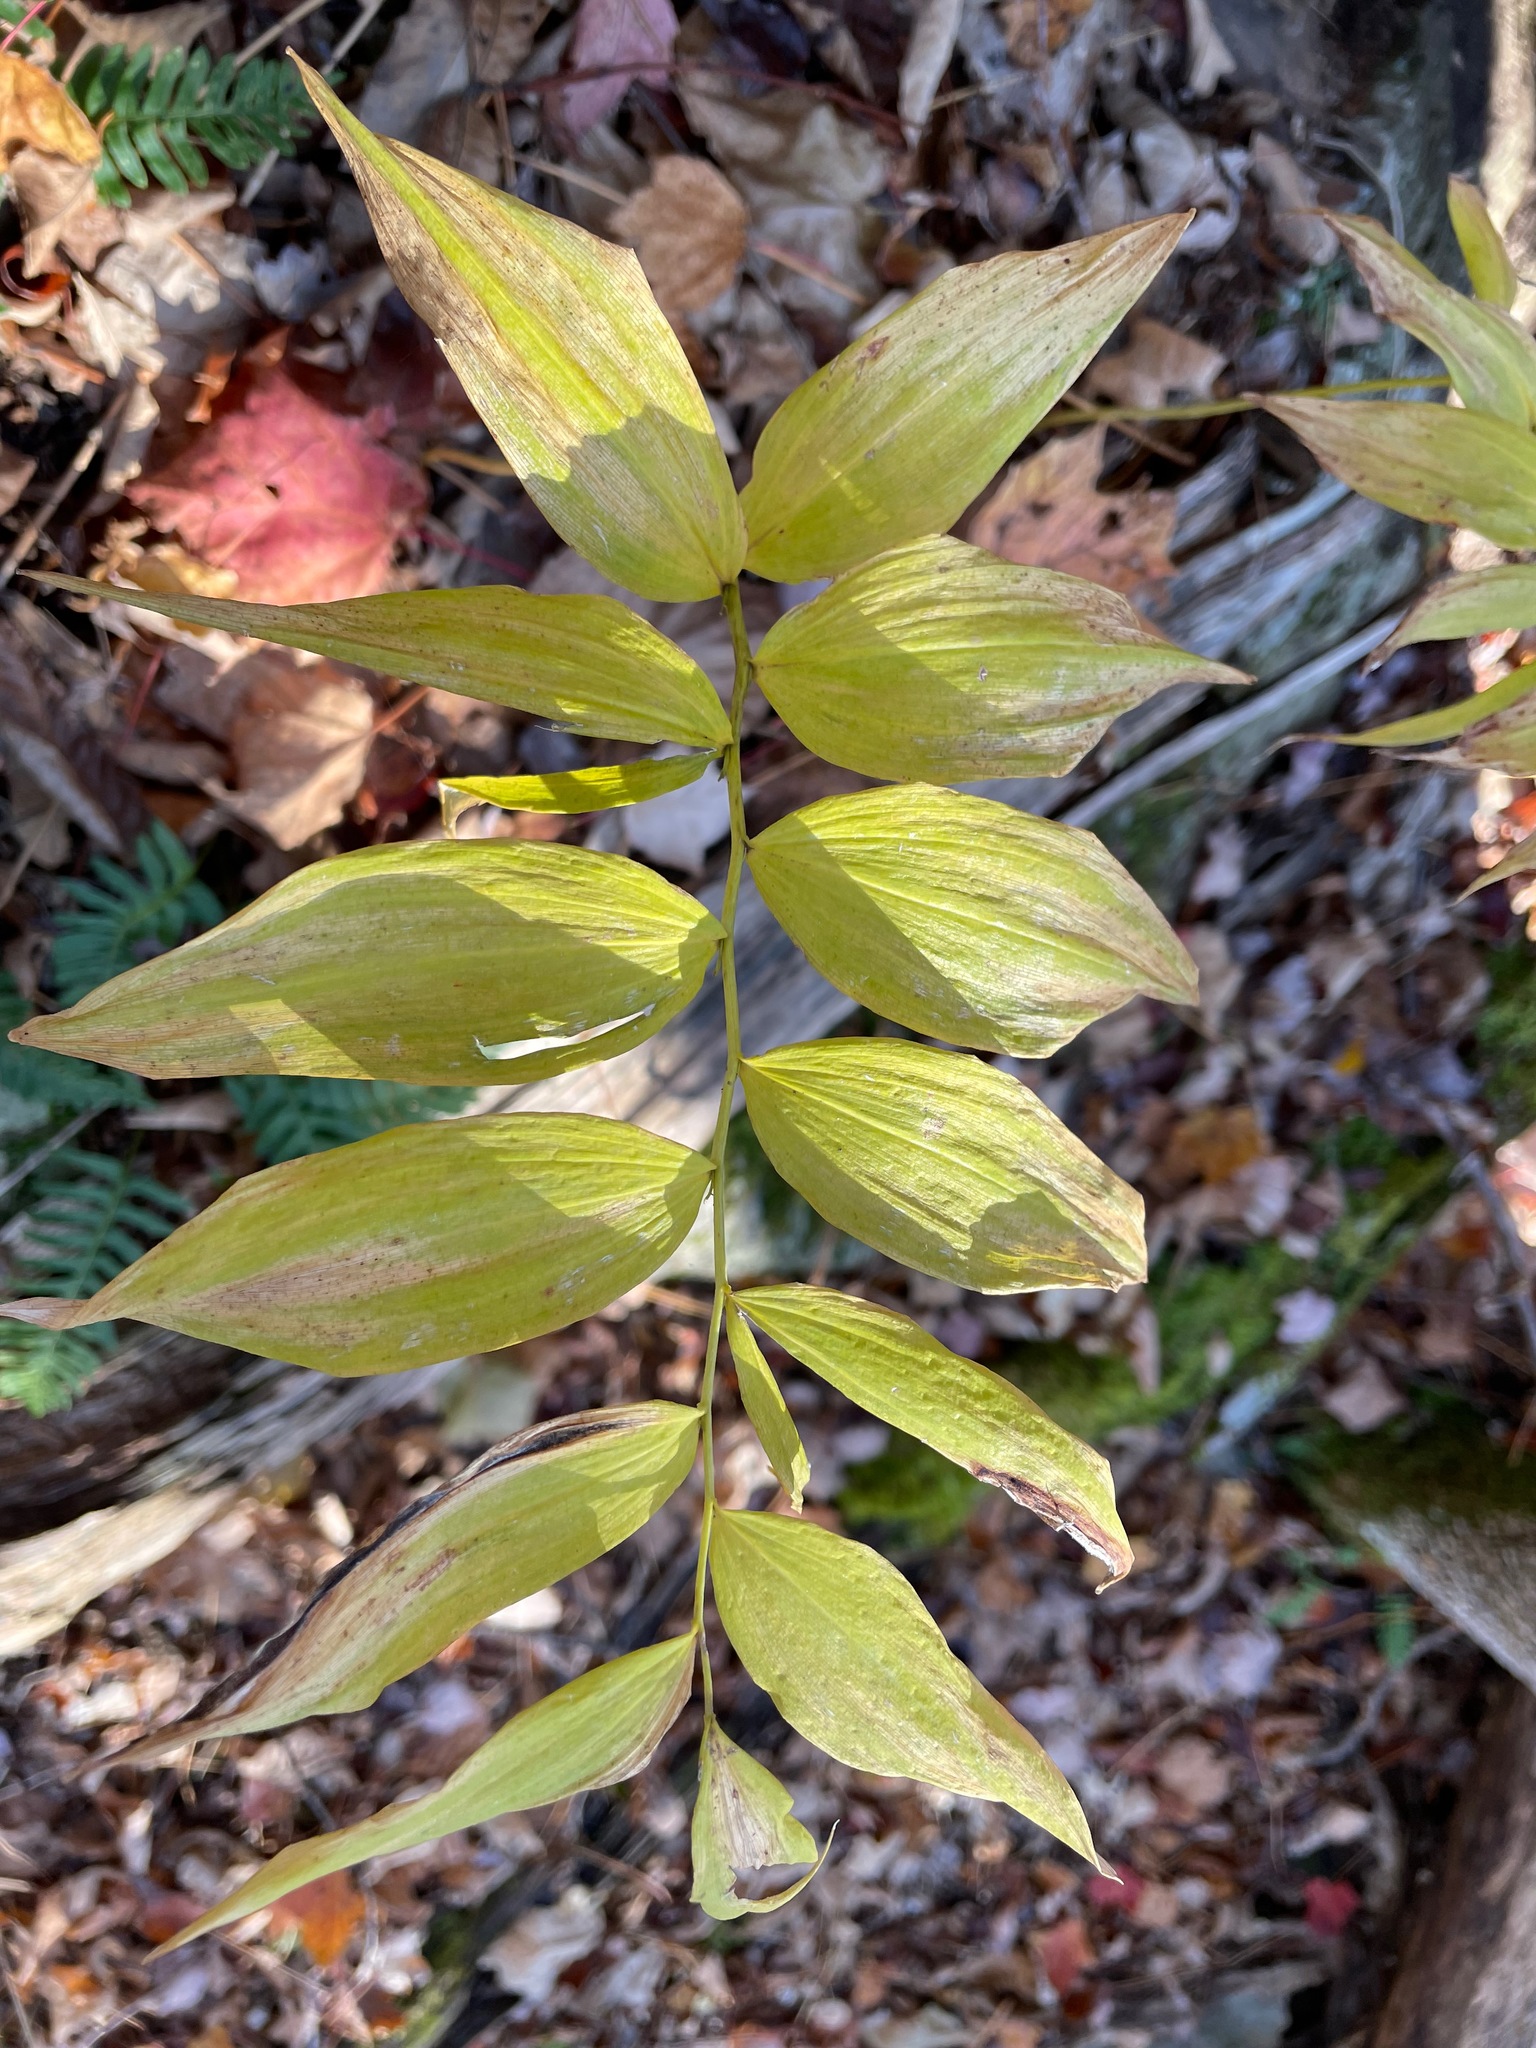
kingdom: Plantae
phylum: Tracheophyta
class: Liliopsida
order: Asparagales
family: Asparagaceae
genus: Polygonatum
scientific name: Polygonatum pubescens
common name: Downy solomon's seal
